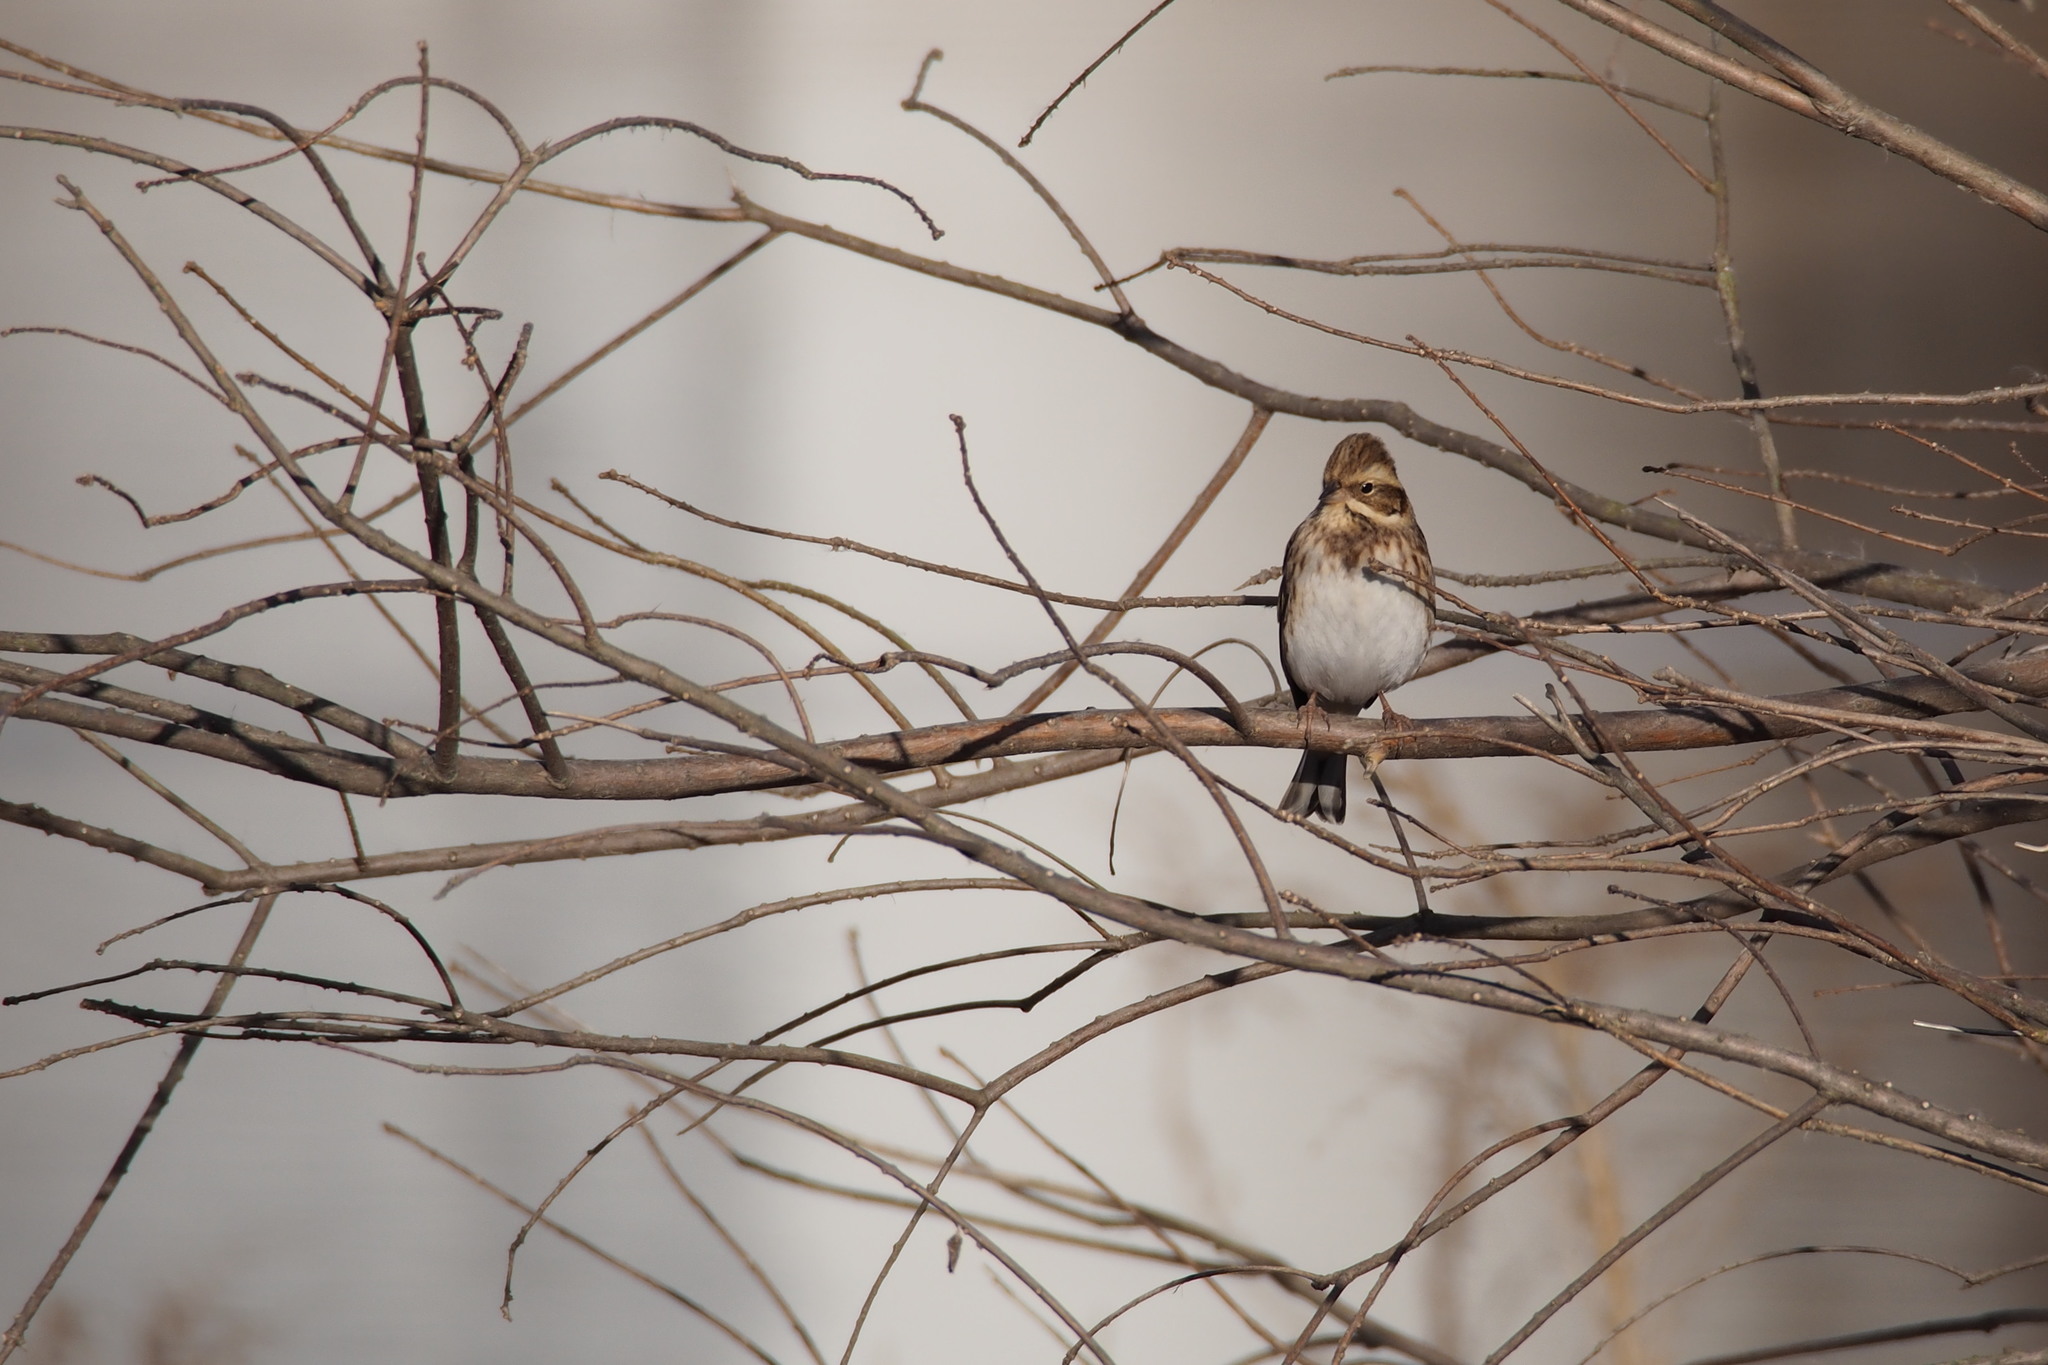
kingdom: Animalia
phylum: Chordata
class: Aves
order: Passeriformes
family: Emberizidae
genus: Emberiza
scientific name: Emberiza rustica
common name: Rustic bunting
